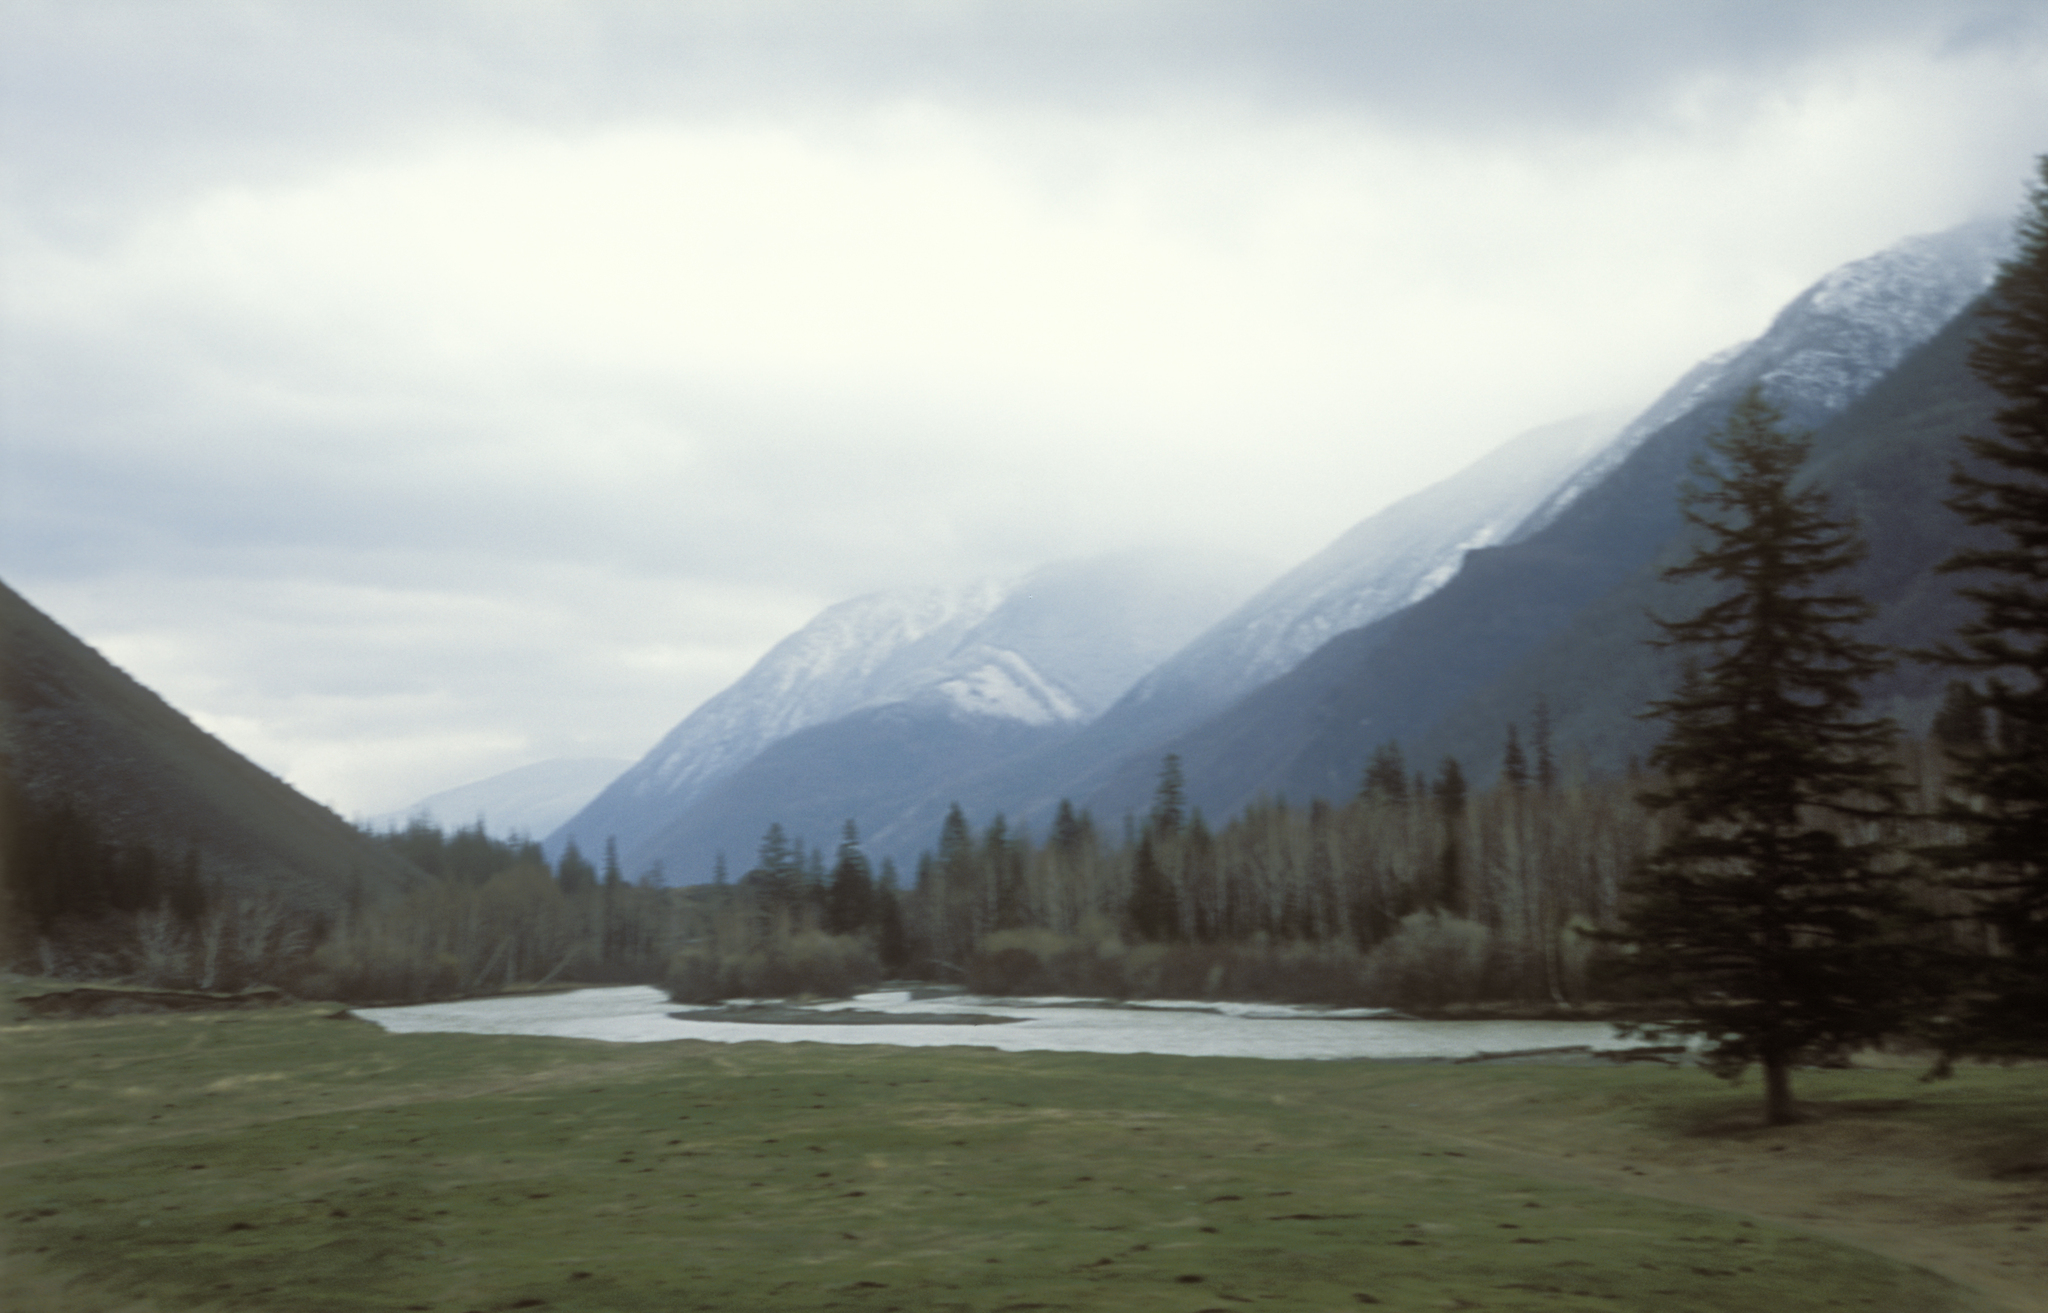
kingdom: Plantae
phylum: Tracheophyta
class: Pinopsida
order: Pinales
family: Pinaceae
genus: Picea
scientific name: Picea obovata
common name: Siberian spruce
